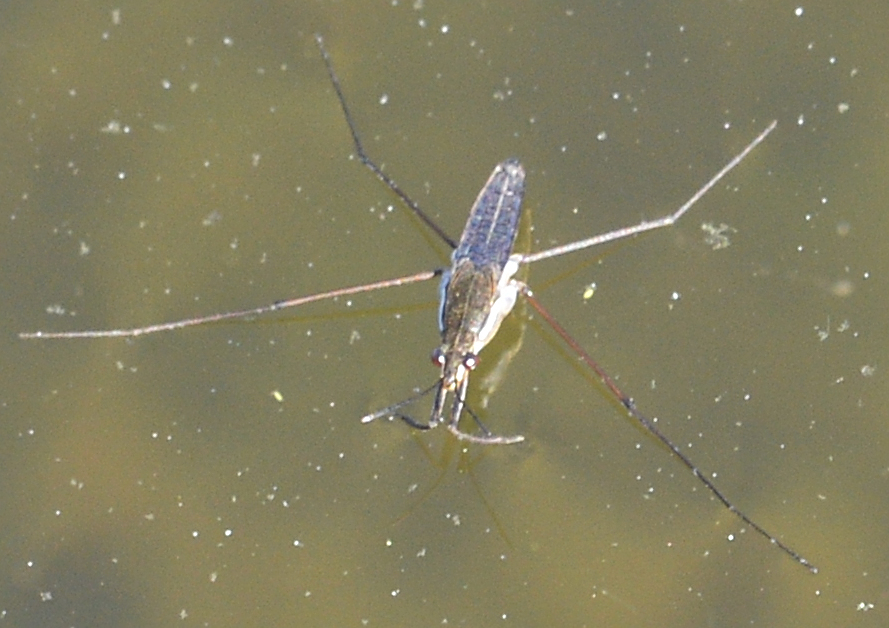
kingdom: Animalia
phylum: Arthropoda
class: Insecta
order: Hemiptera
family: Gerridae
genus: Gerris
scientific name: Gerris
